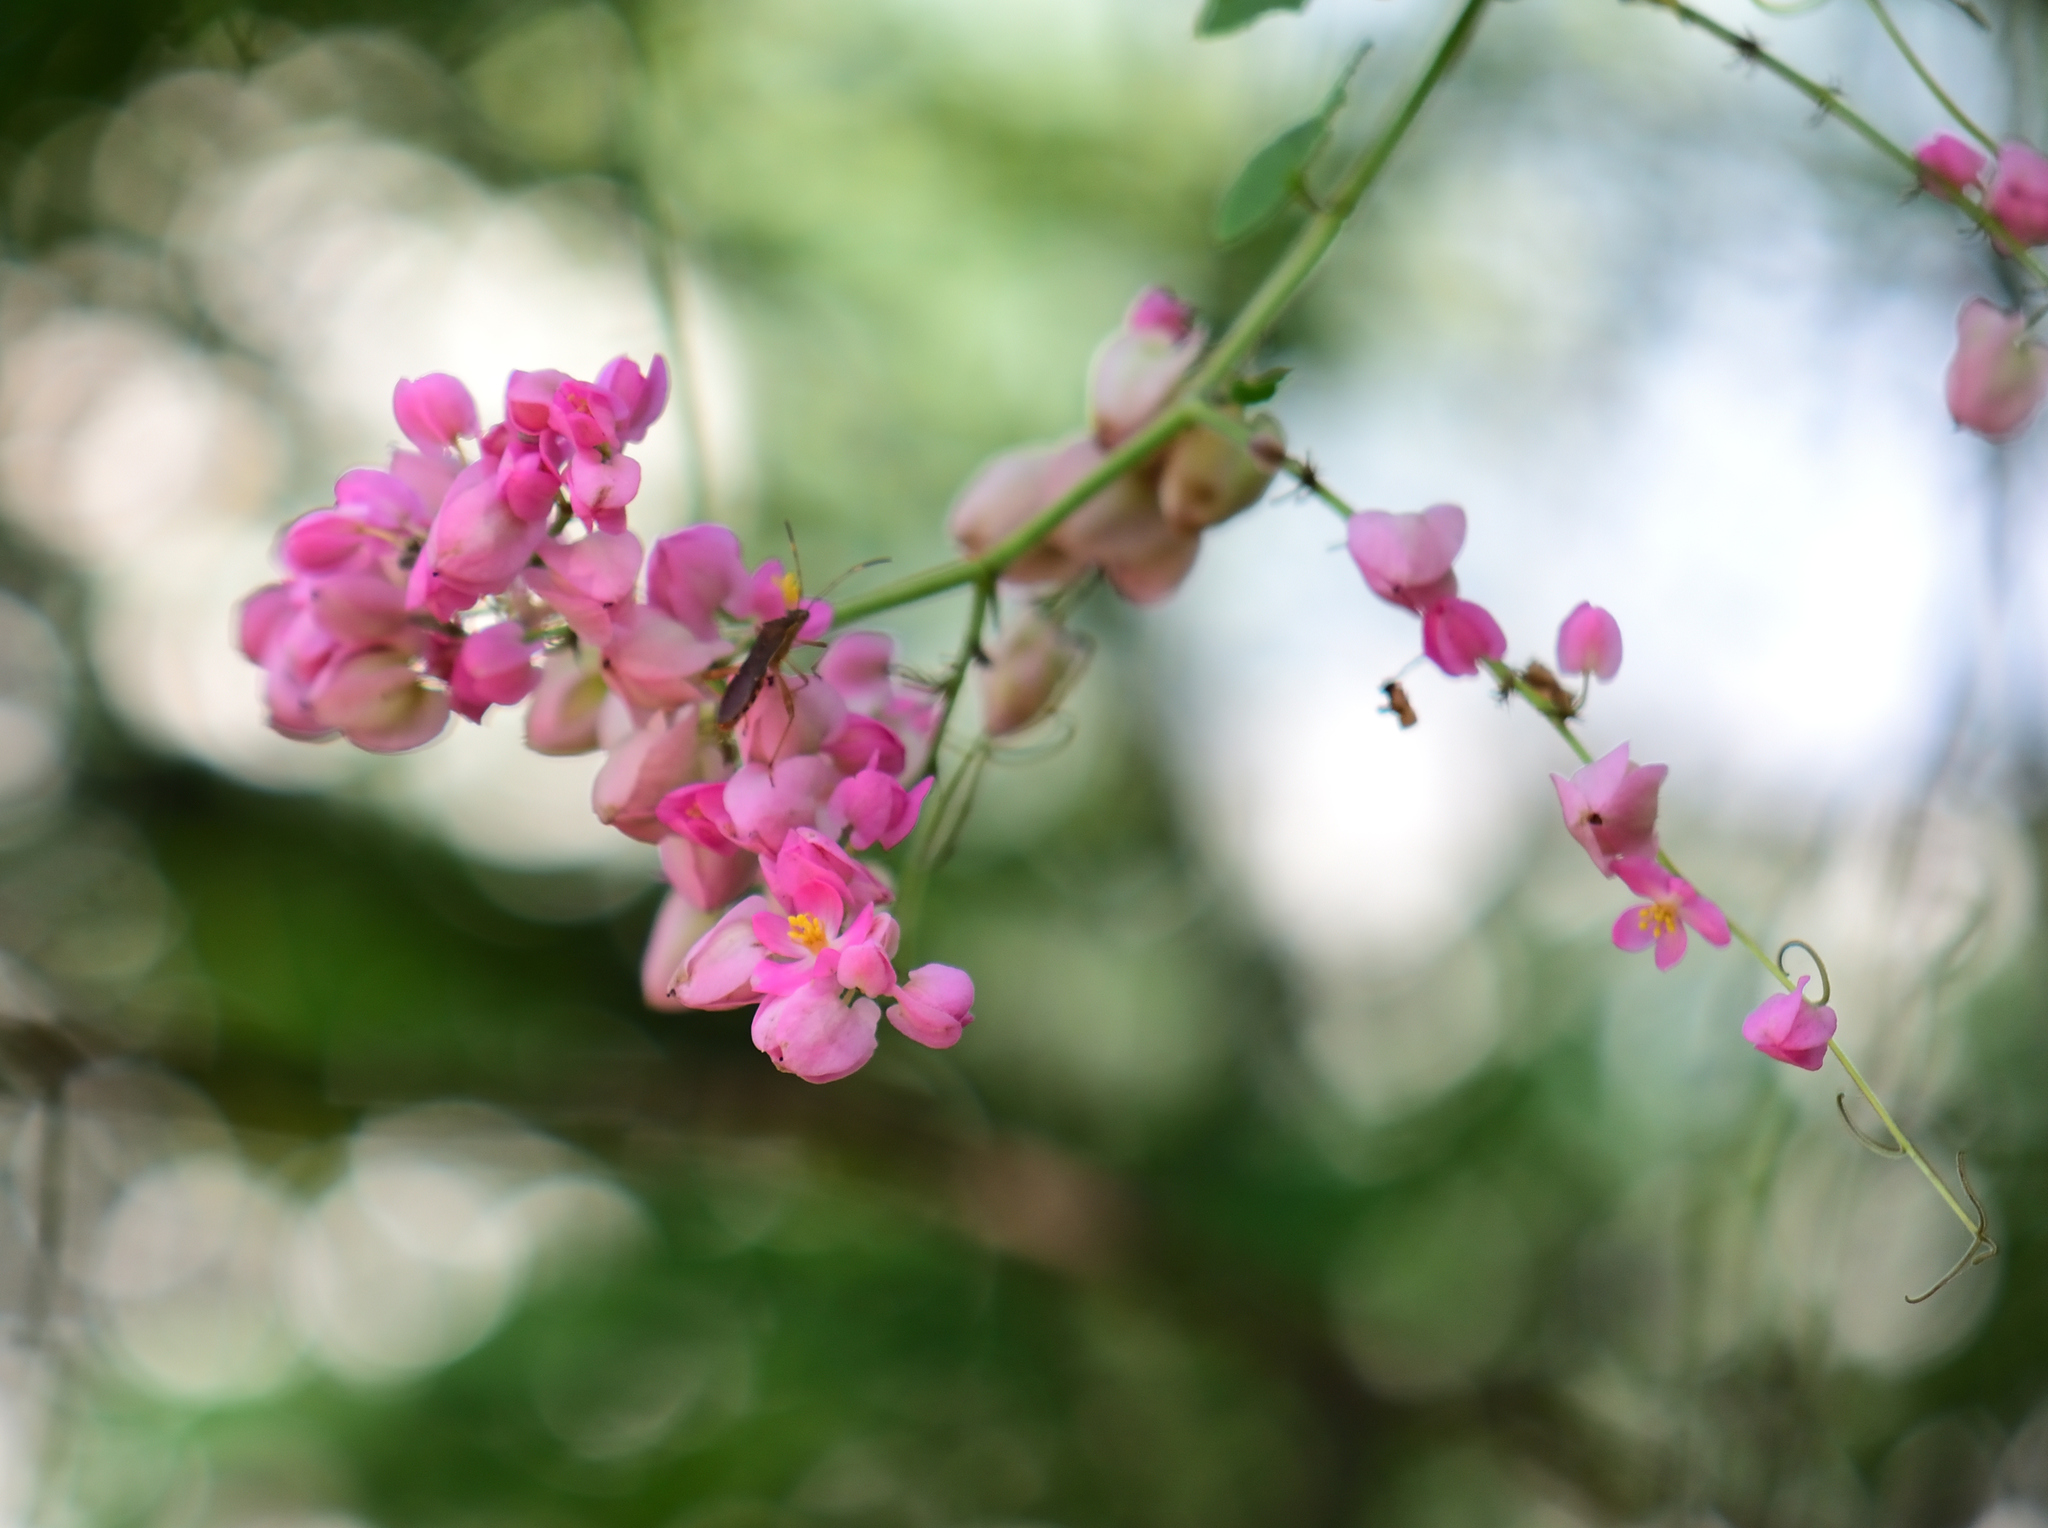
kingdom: Plantae
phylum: Tracheophyta
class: Magnoliopsida
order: Caryophyllales
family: Polygonaceae
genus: Antigonon
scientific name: Antigonon leptopus
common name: Coral vine
